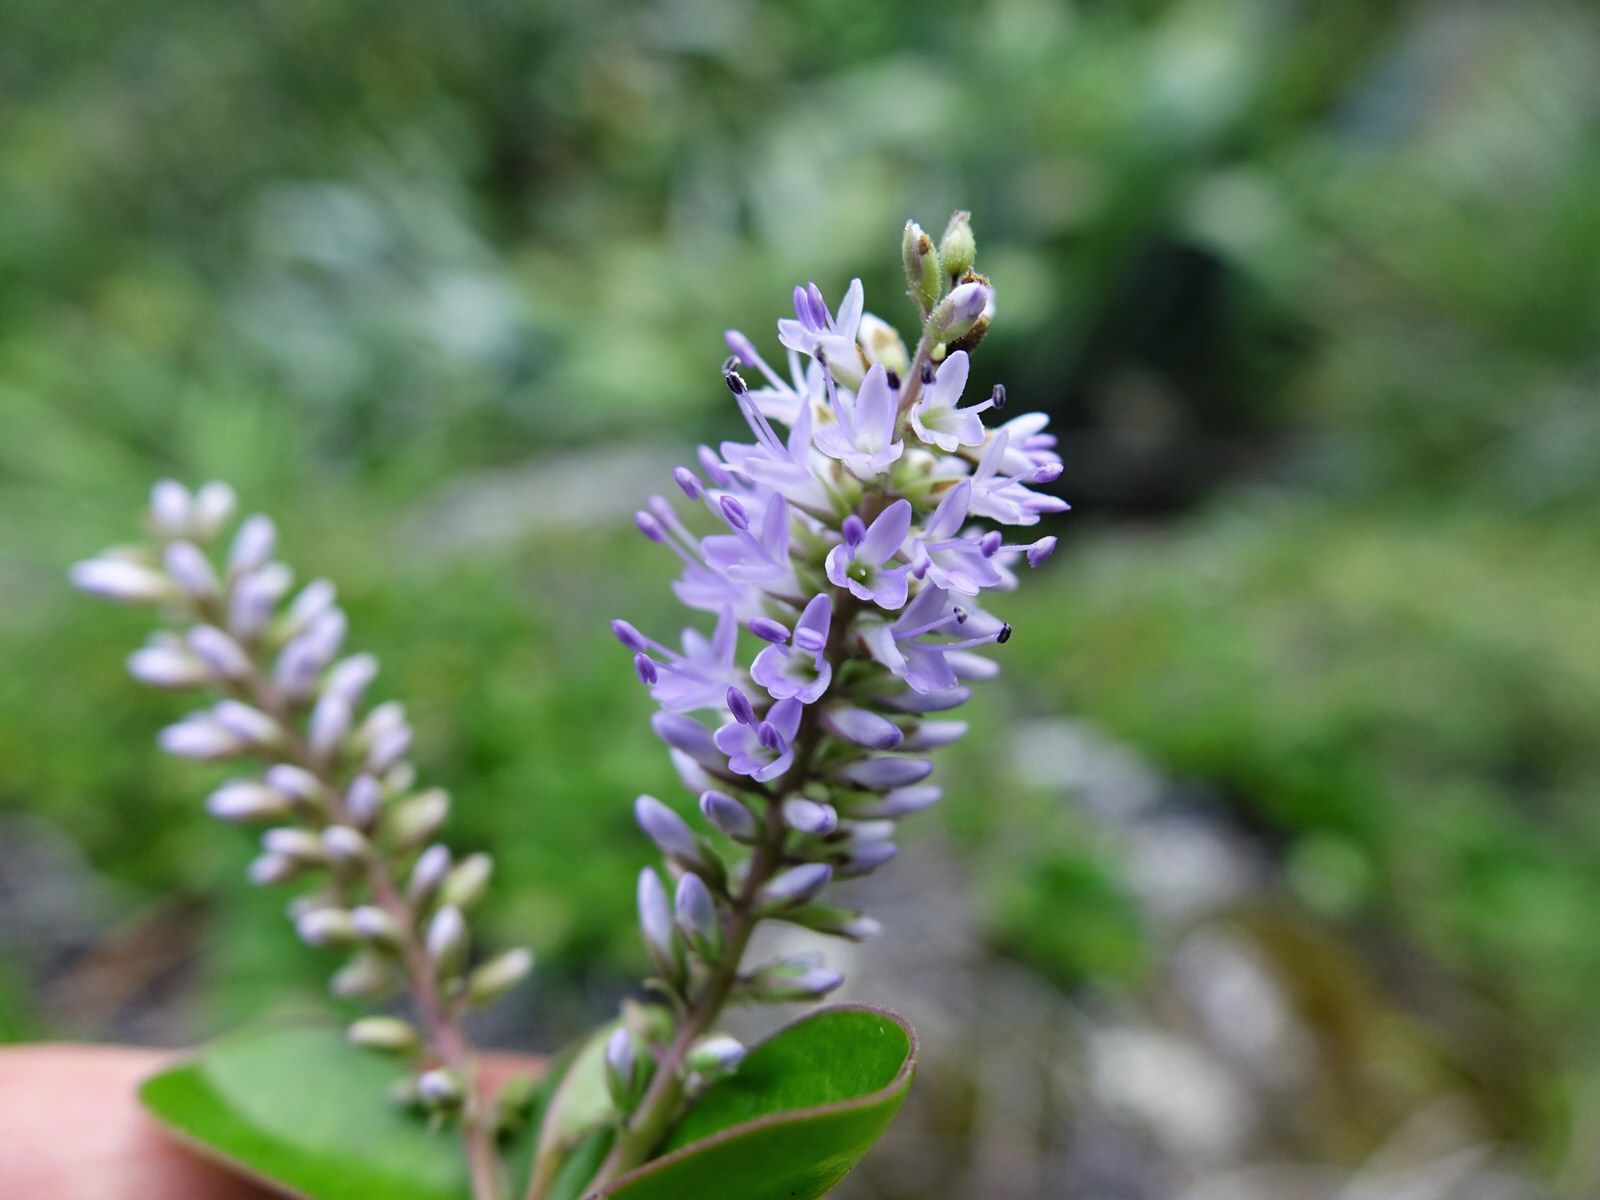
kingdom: Plantae
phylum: Tracheophyta
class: Magnoliopsida
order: Lamiales
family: Plantaginaceae
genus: Veronica
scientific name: Veronica obtusata
